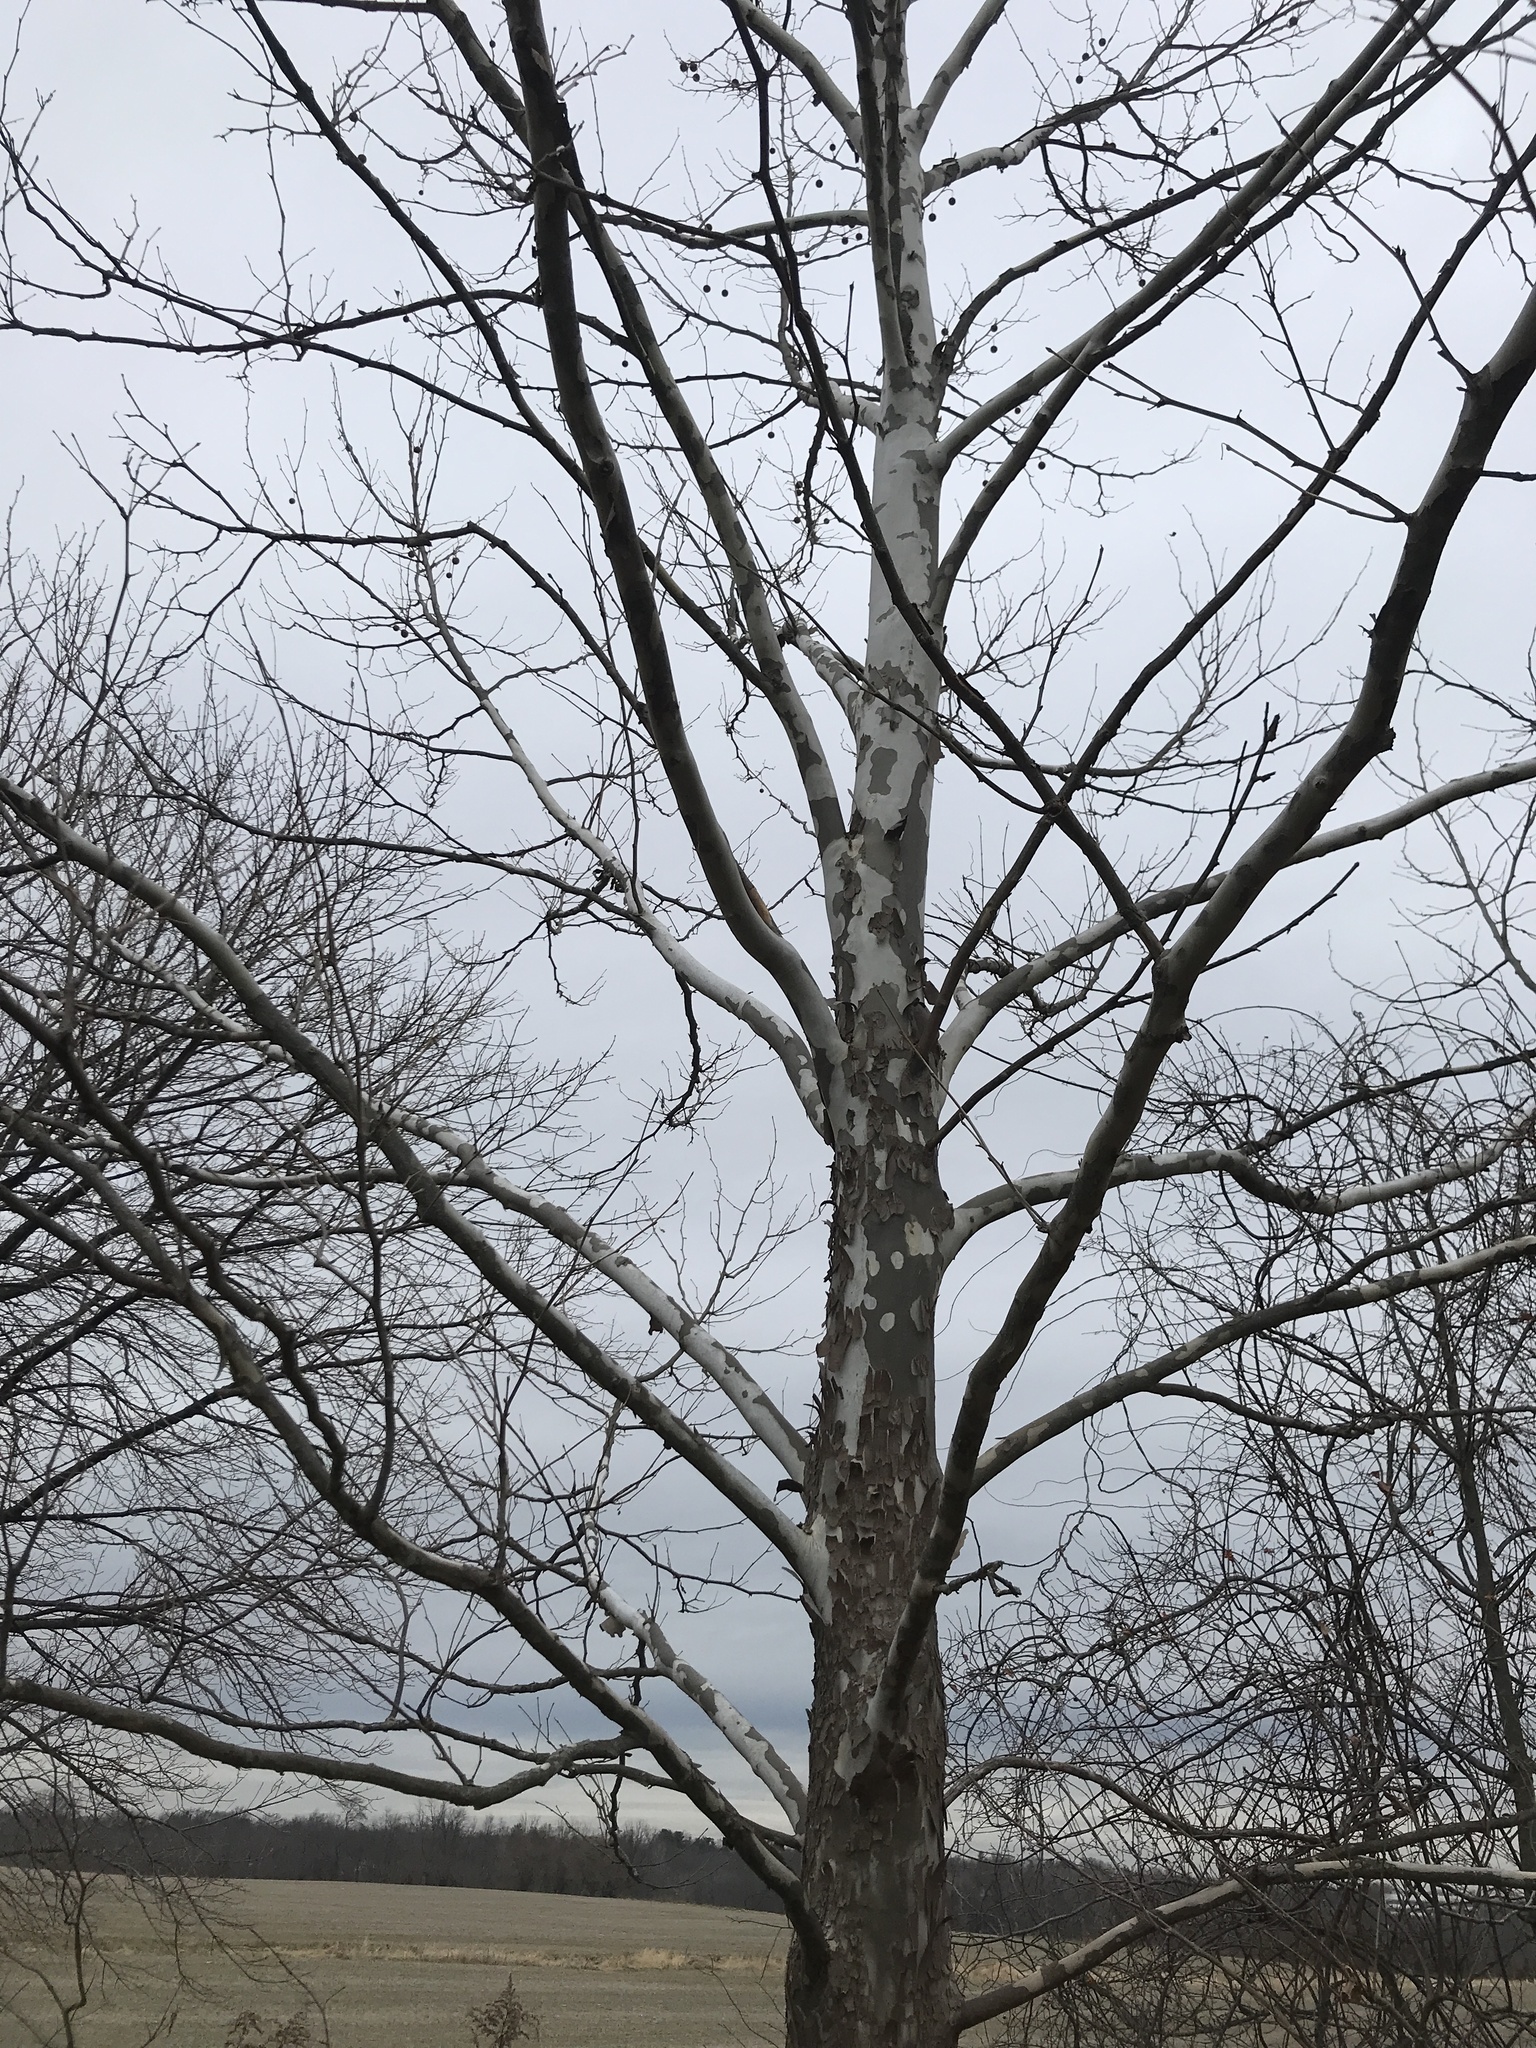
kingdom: Plantae
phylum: Tracheophyta
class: Magnoliopsida
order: Proteales
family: Platanaceae
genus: Platanus
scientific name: Platanus occidentalis
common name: American sycamore
